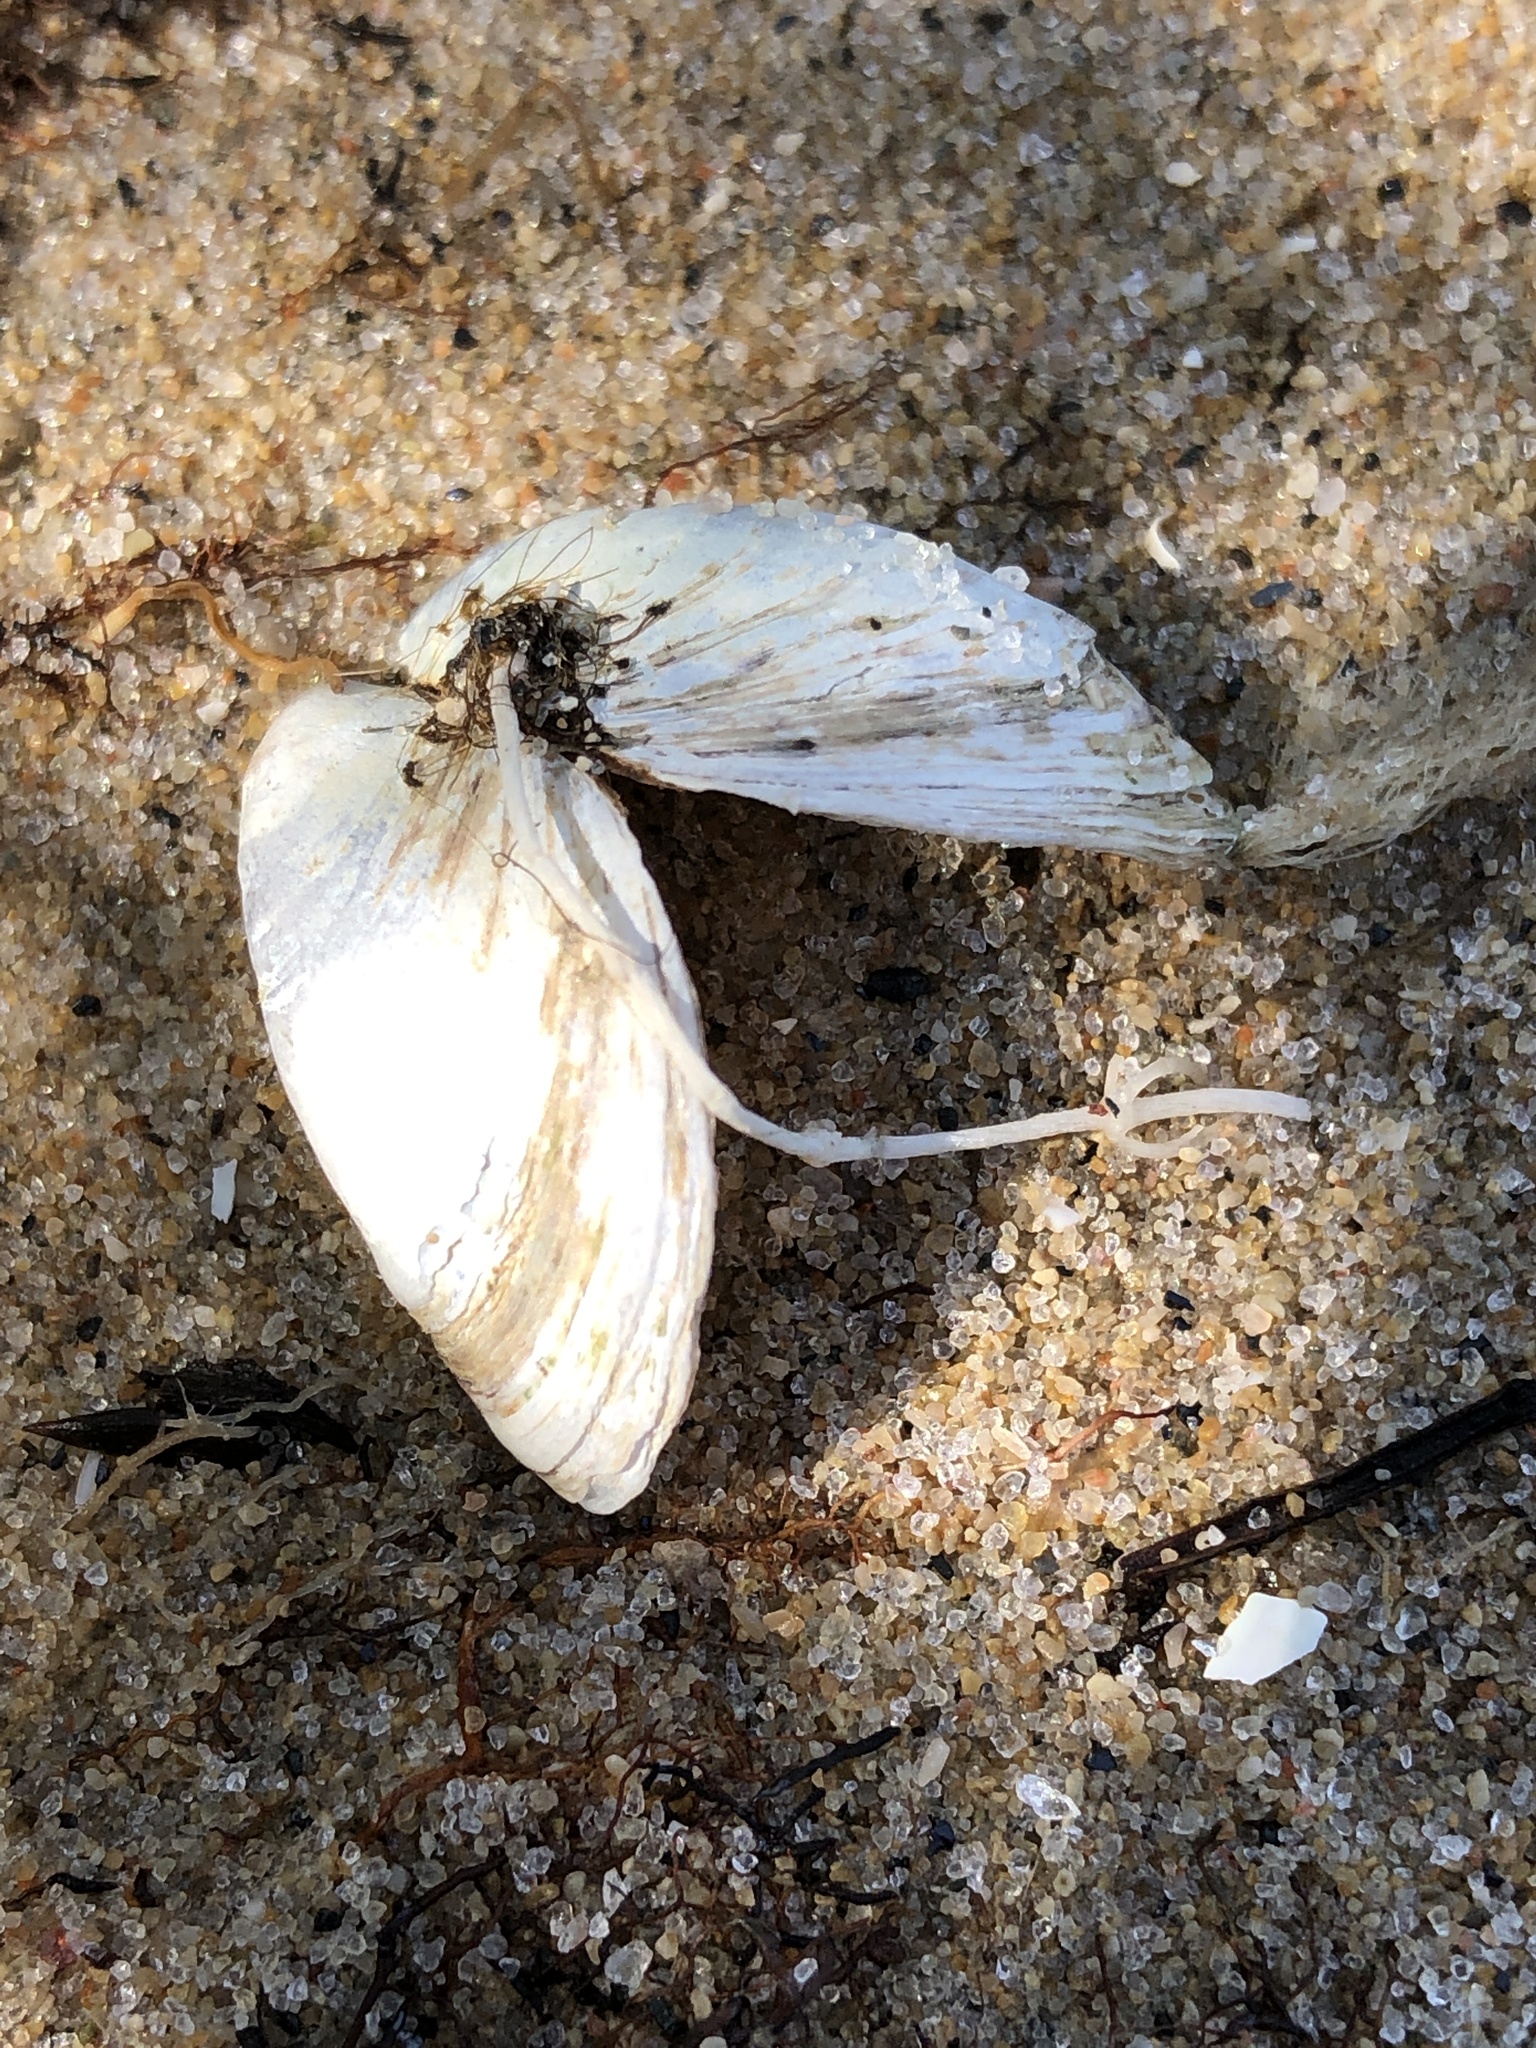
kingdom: Animalia
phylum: Mollusca
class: Bivalvia
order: Myida
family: Dreissenidae
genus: Dreissena
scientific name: Dreissena polymorpha
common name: Zebra mussel
